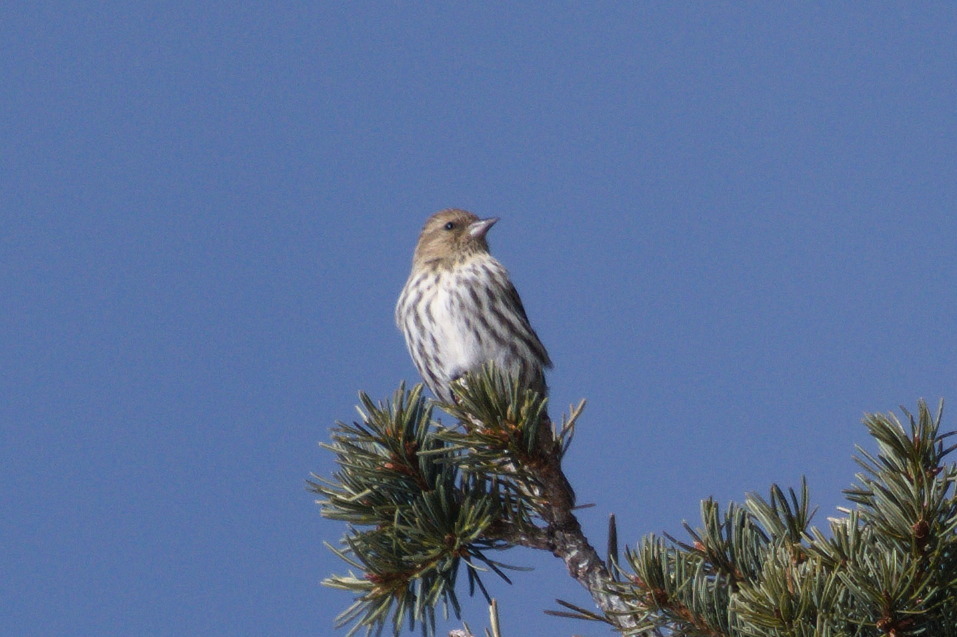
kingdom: Animalia
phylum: Chordata
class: Aves
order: Passeriformes
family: Fringillidae
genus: Spinus
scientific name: Spinus pinus
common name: Pine siskin
